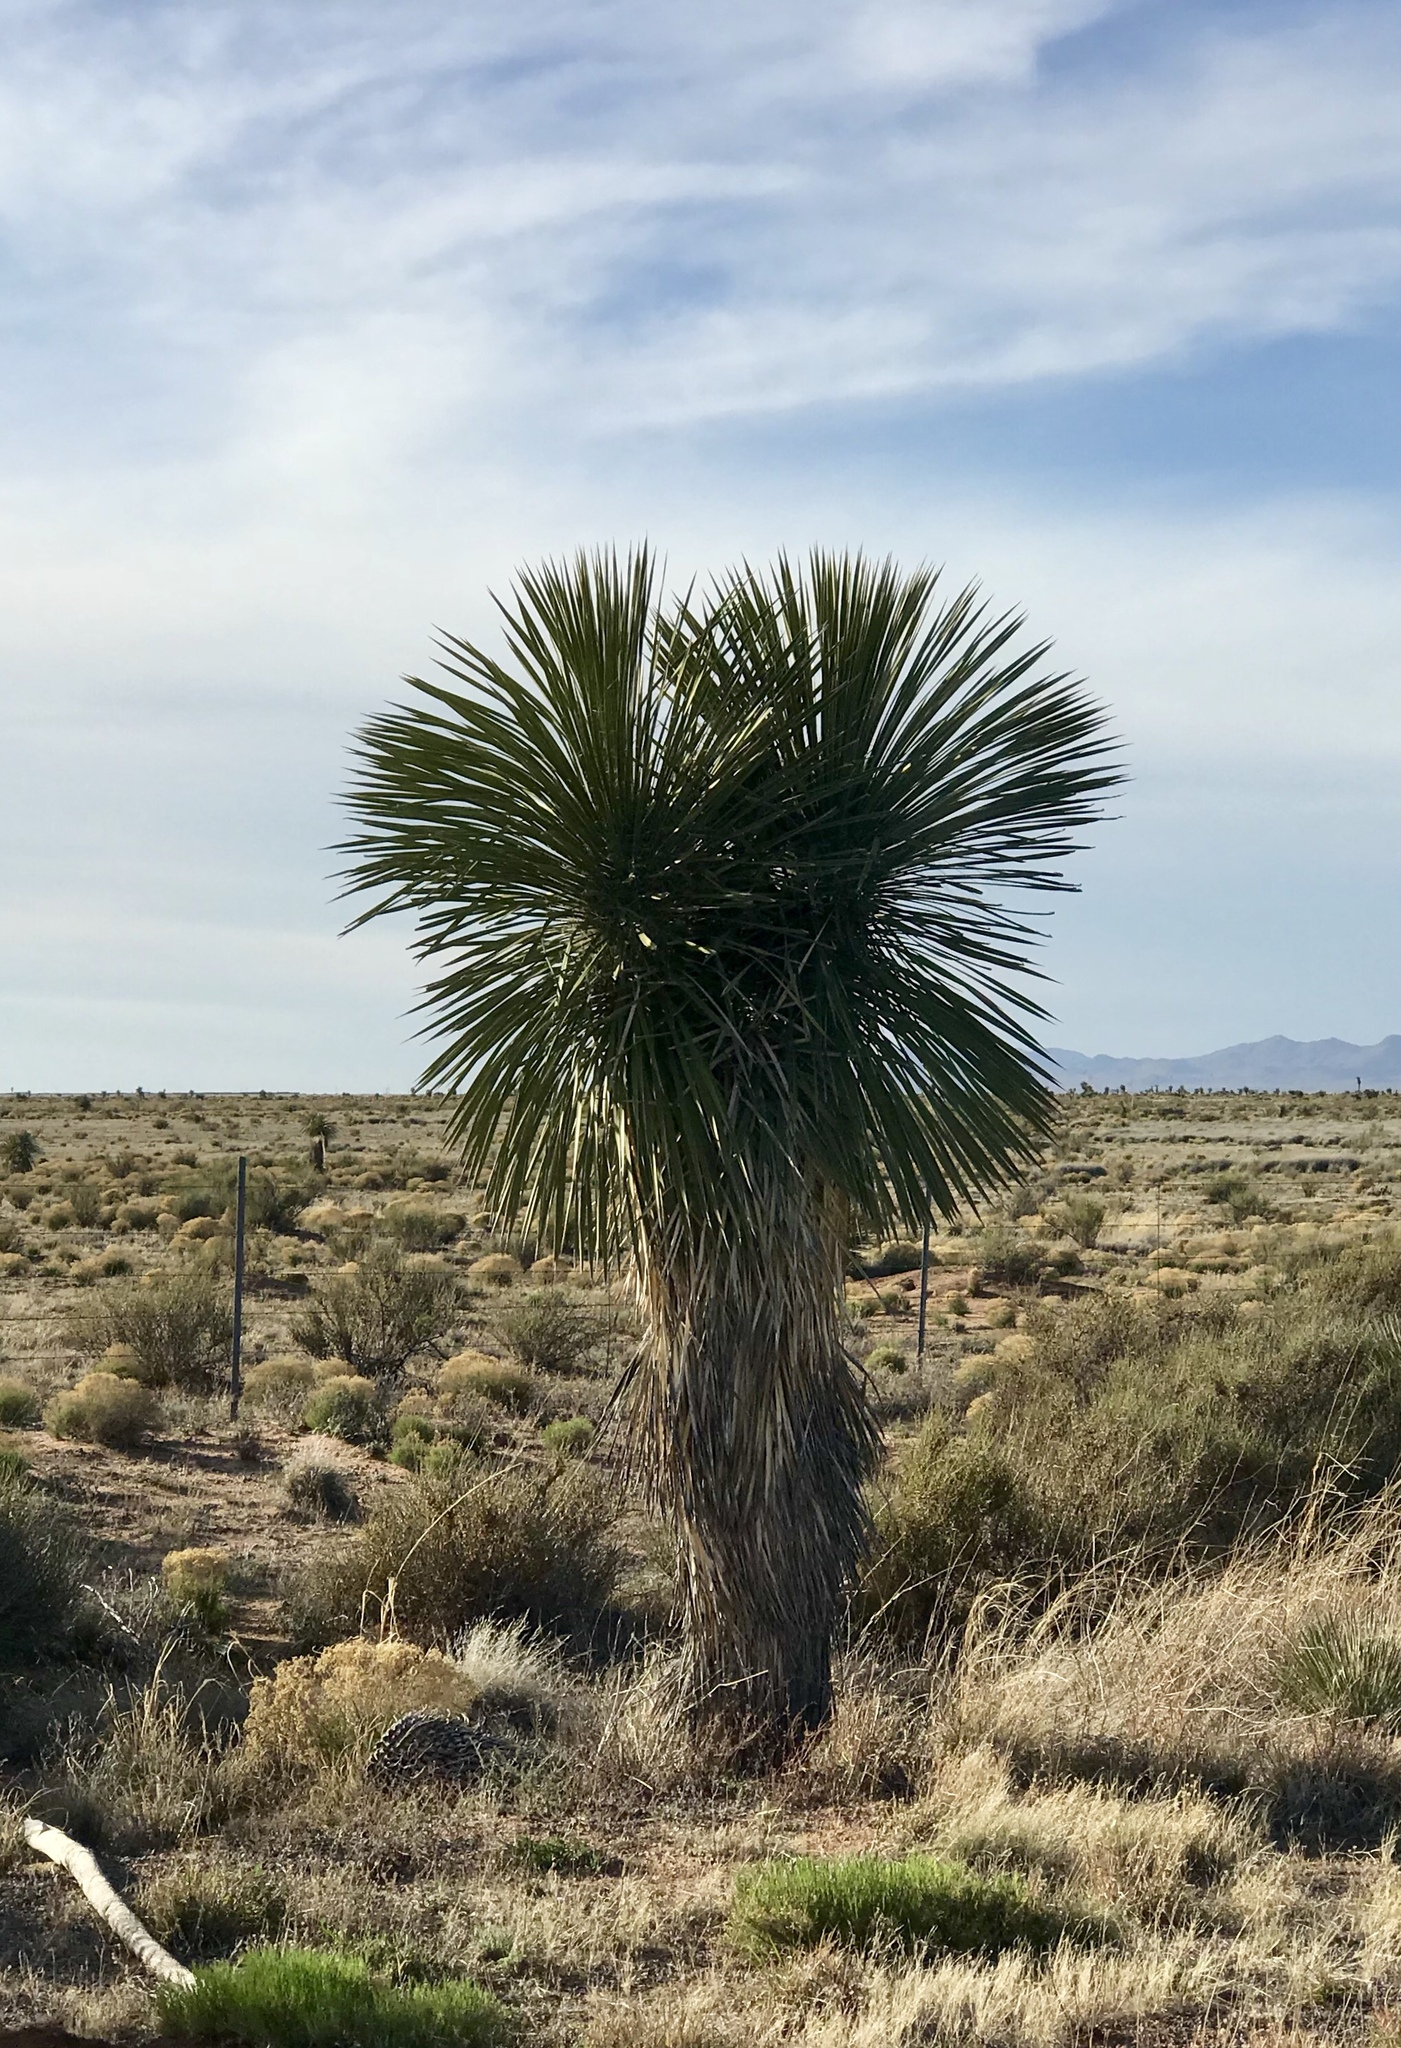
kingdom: Plantae
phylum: Tracheophyta
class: Liliopsida
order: Asparagales
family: Asparagaceae
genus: Yucca
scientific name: Yucca elata
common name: Palmella
